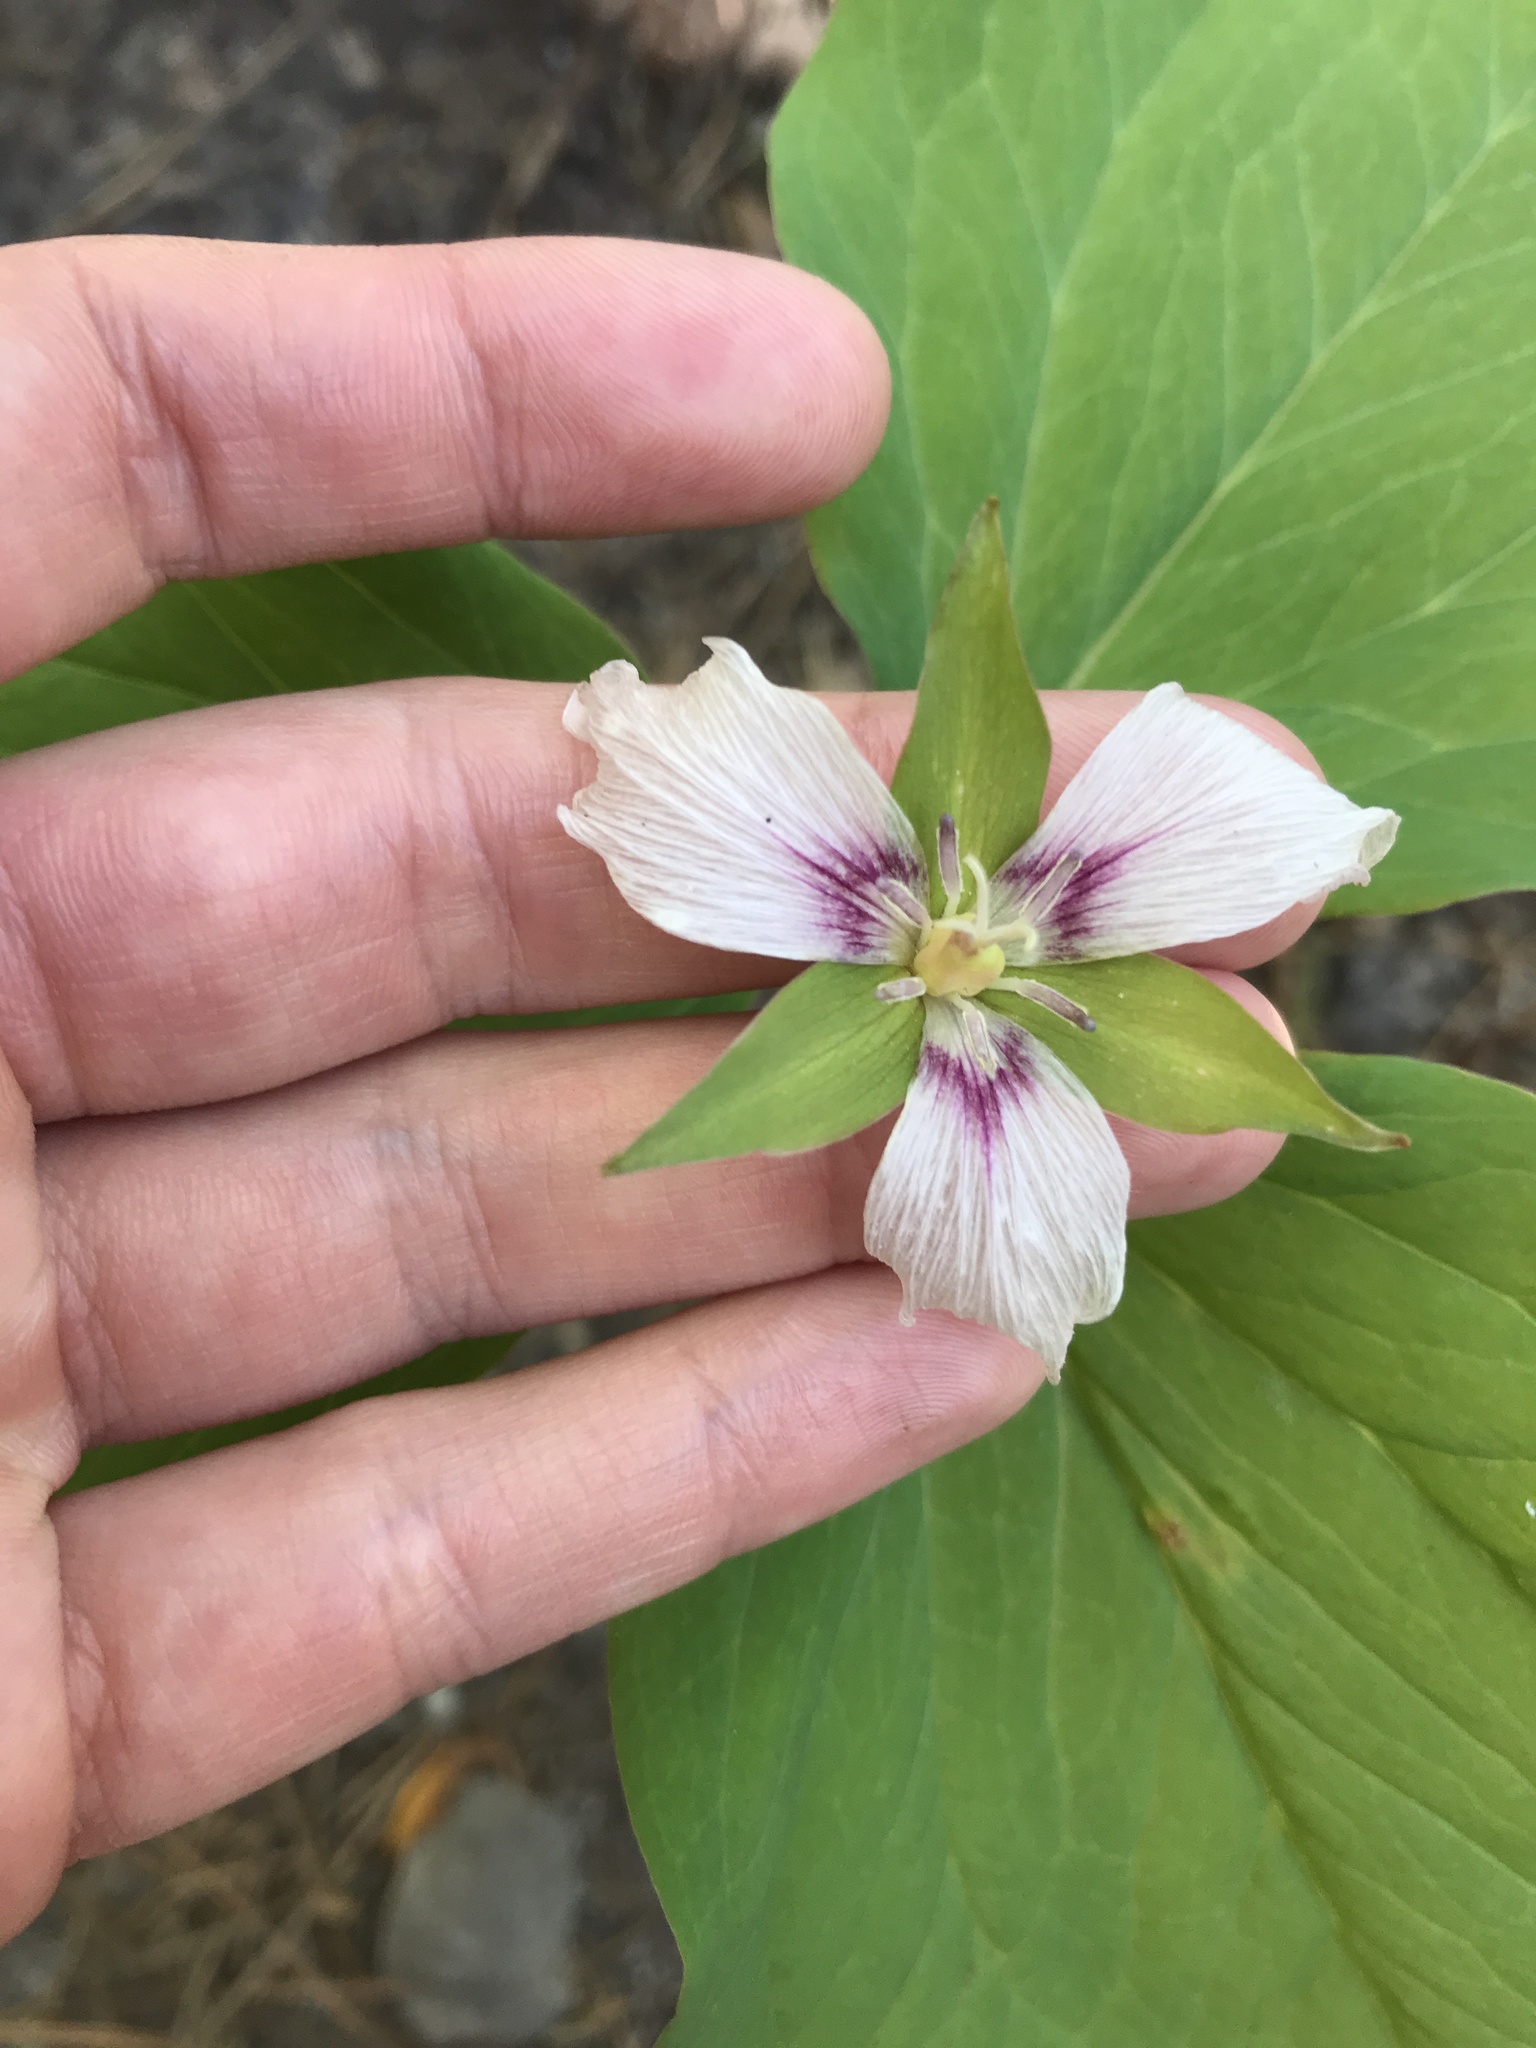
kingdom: Plantae
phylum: Tracheophyta
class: Liliopsida
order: Liliales
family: Melanthiaceae
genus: Trillium
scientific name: Trillium undulatum
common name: Paint trillium
